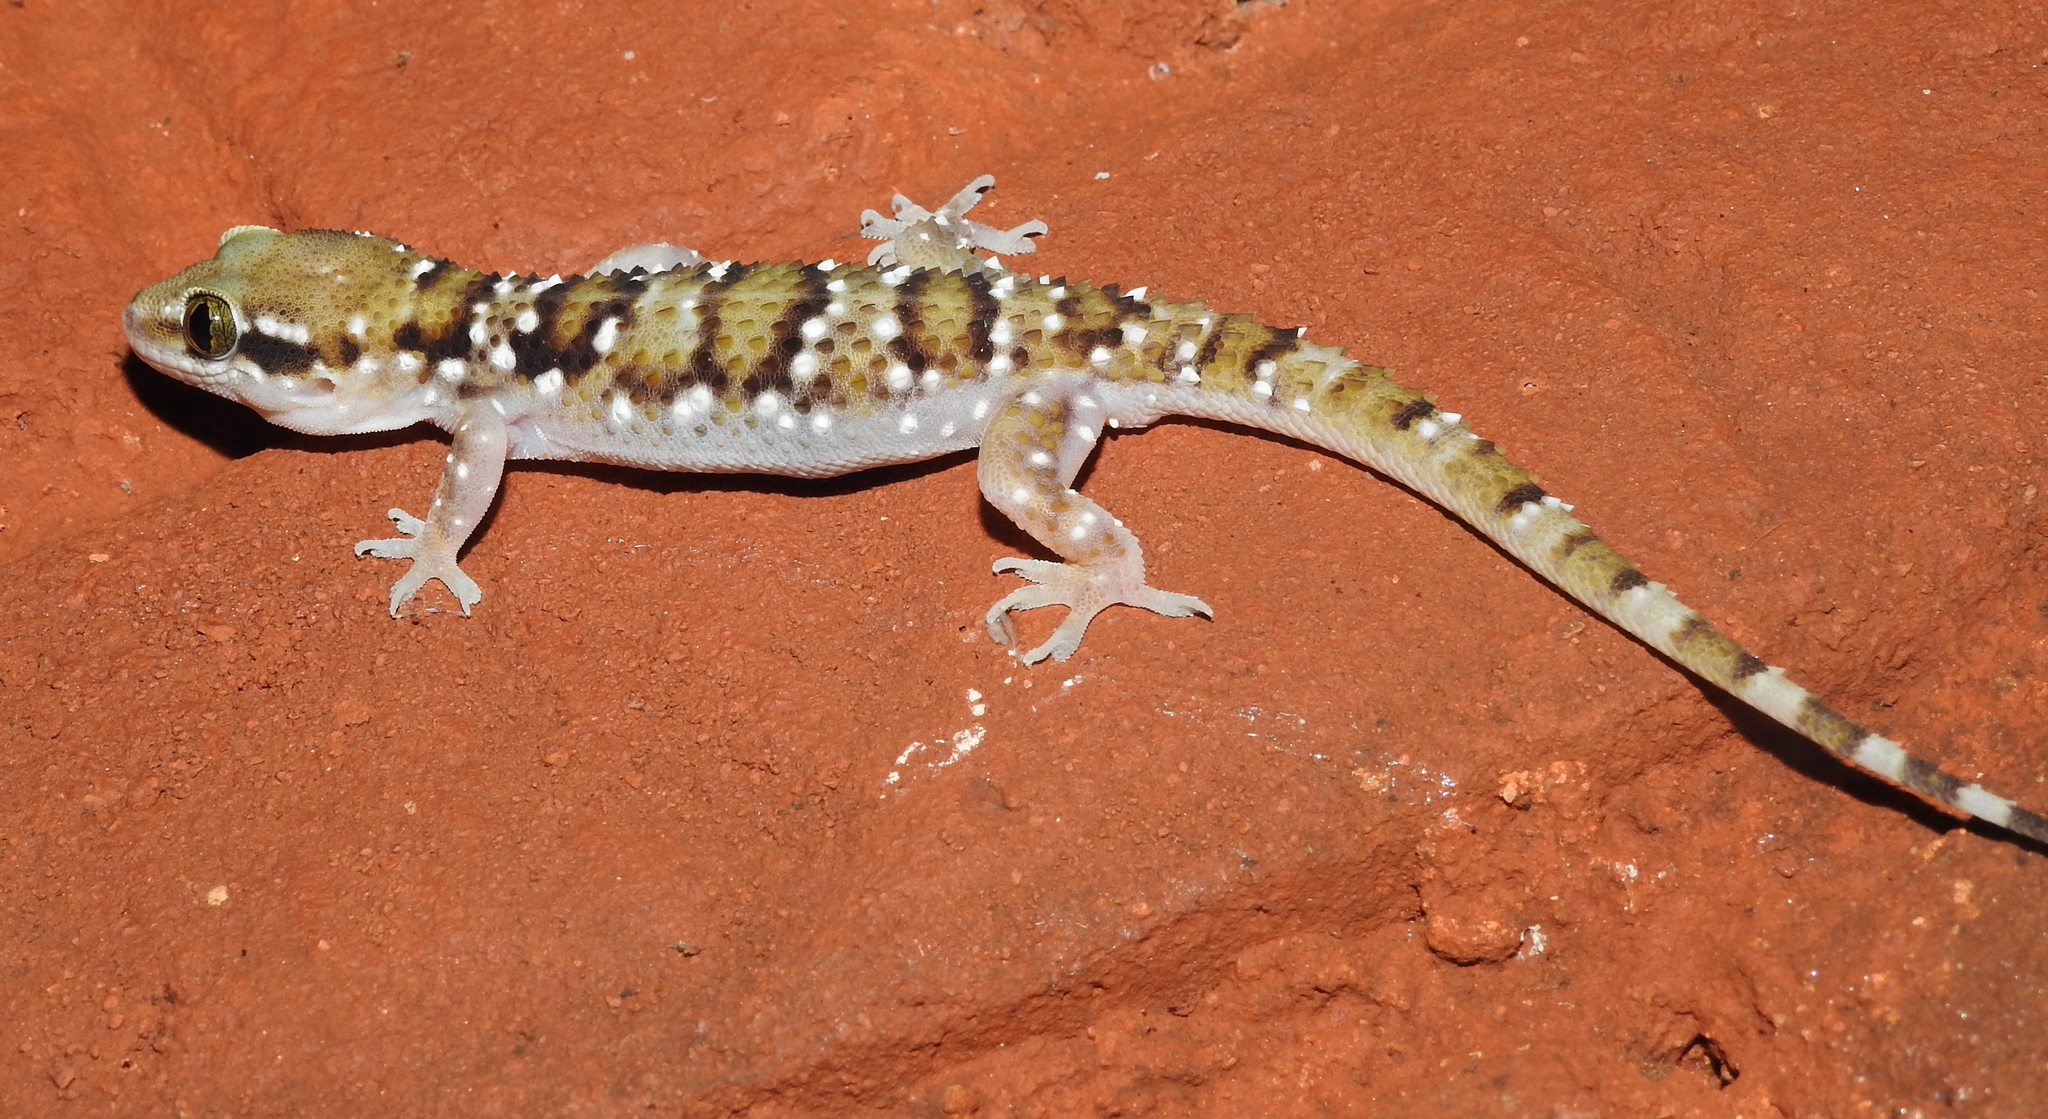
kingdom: Animalia
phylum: Chordata
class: Squamata
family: Gekkonidae
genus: Hemidactylus
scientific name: Hemidactylus triedrus
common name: Blotched house gecko
